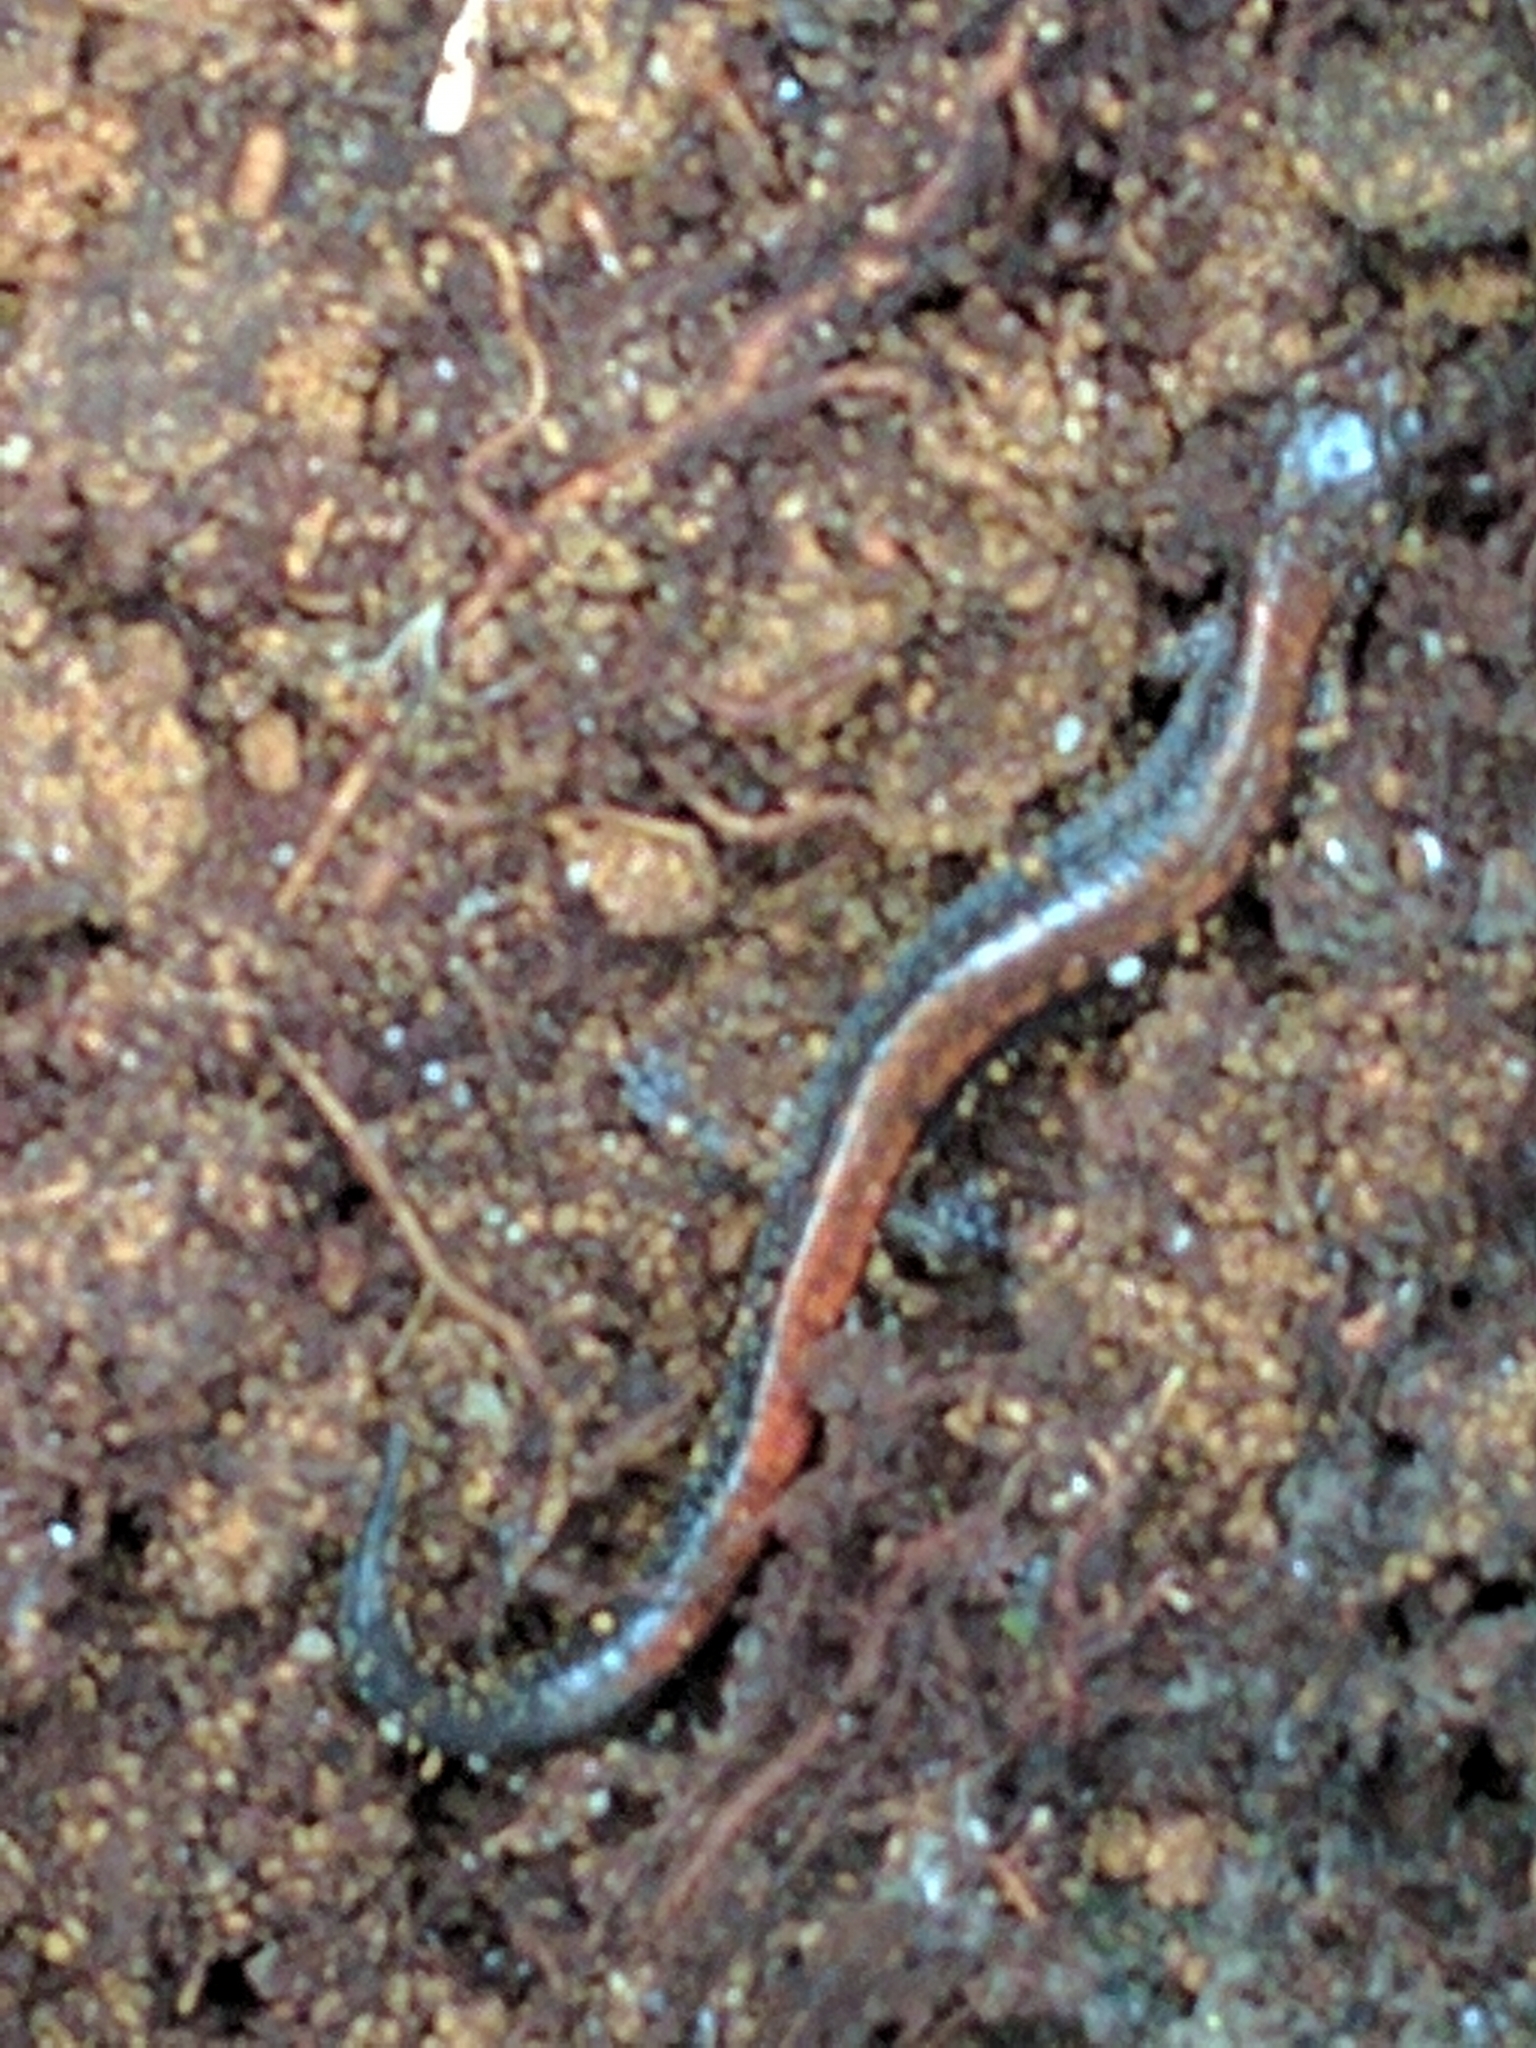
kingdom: Animalia
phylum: Chordata
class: Amphibia
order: Caudata
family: Plethodontidae
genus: Plethodon
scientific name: Plethodon cinereus
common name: Redback salamander
